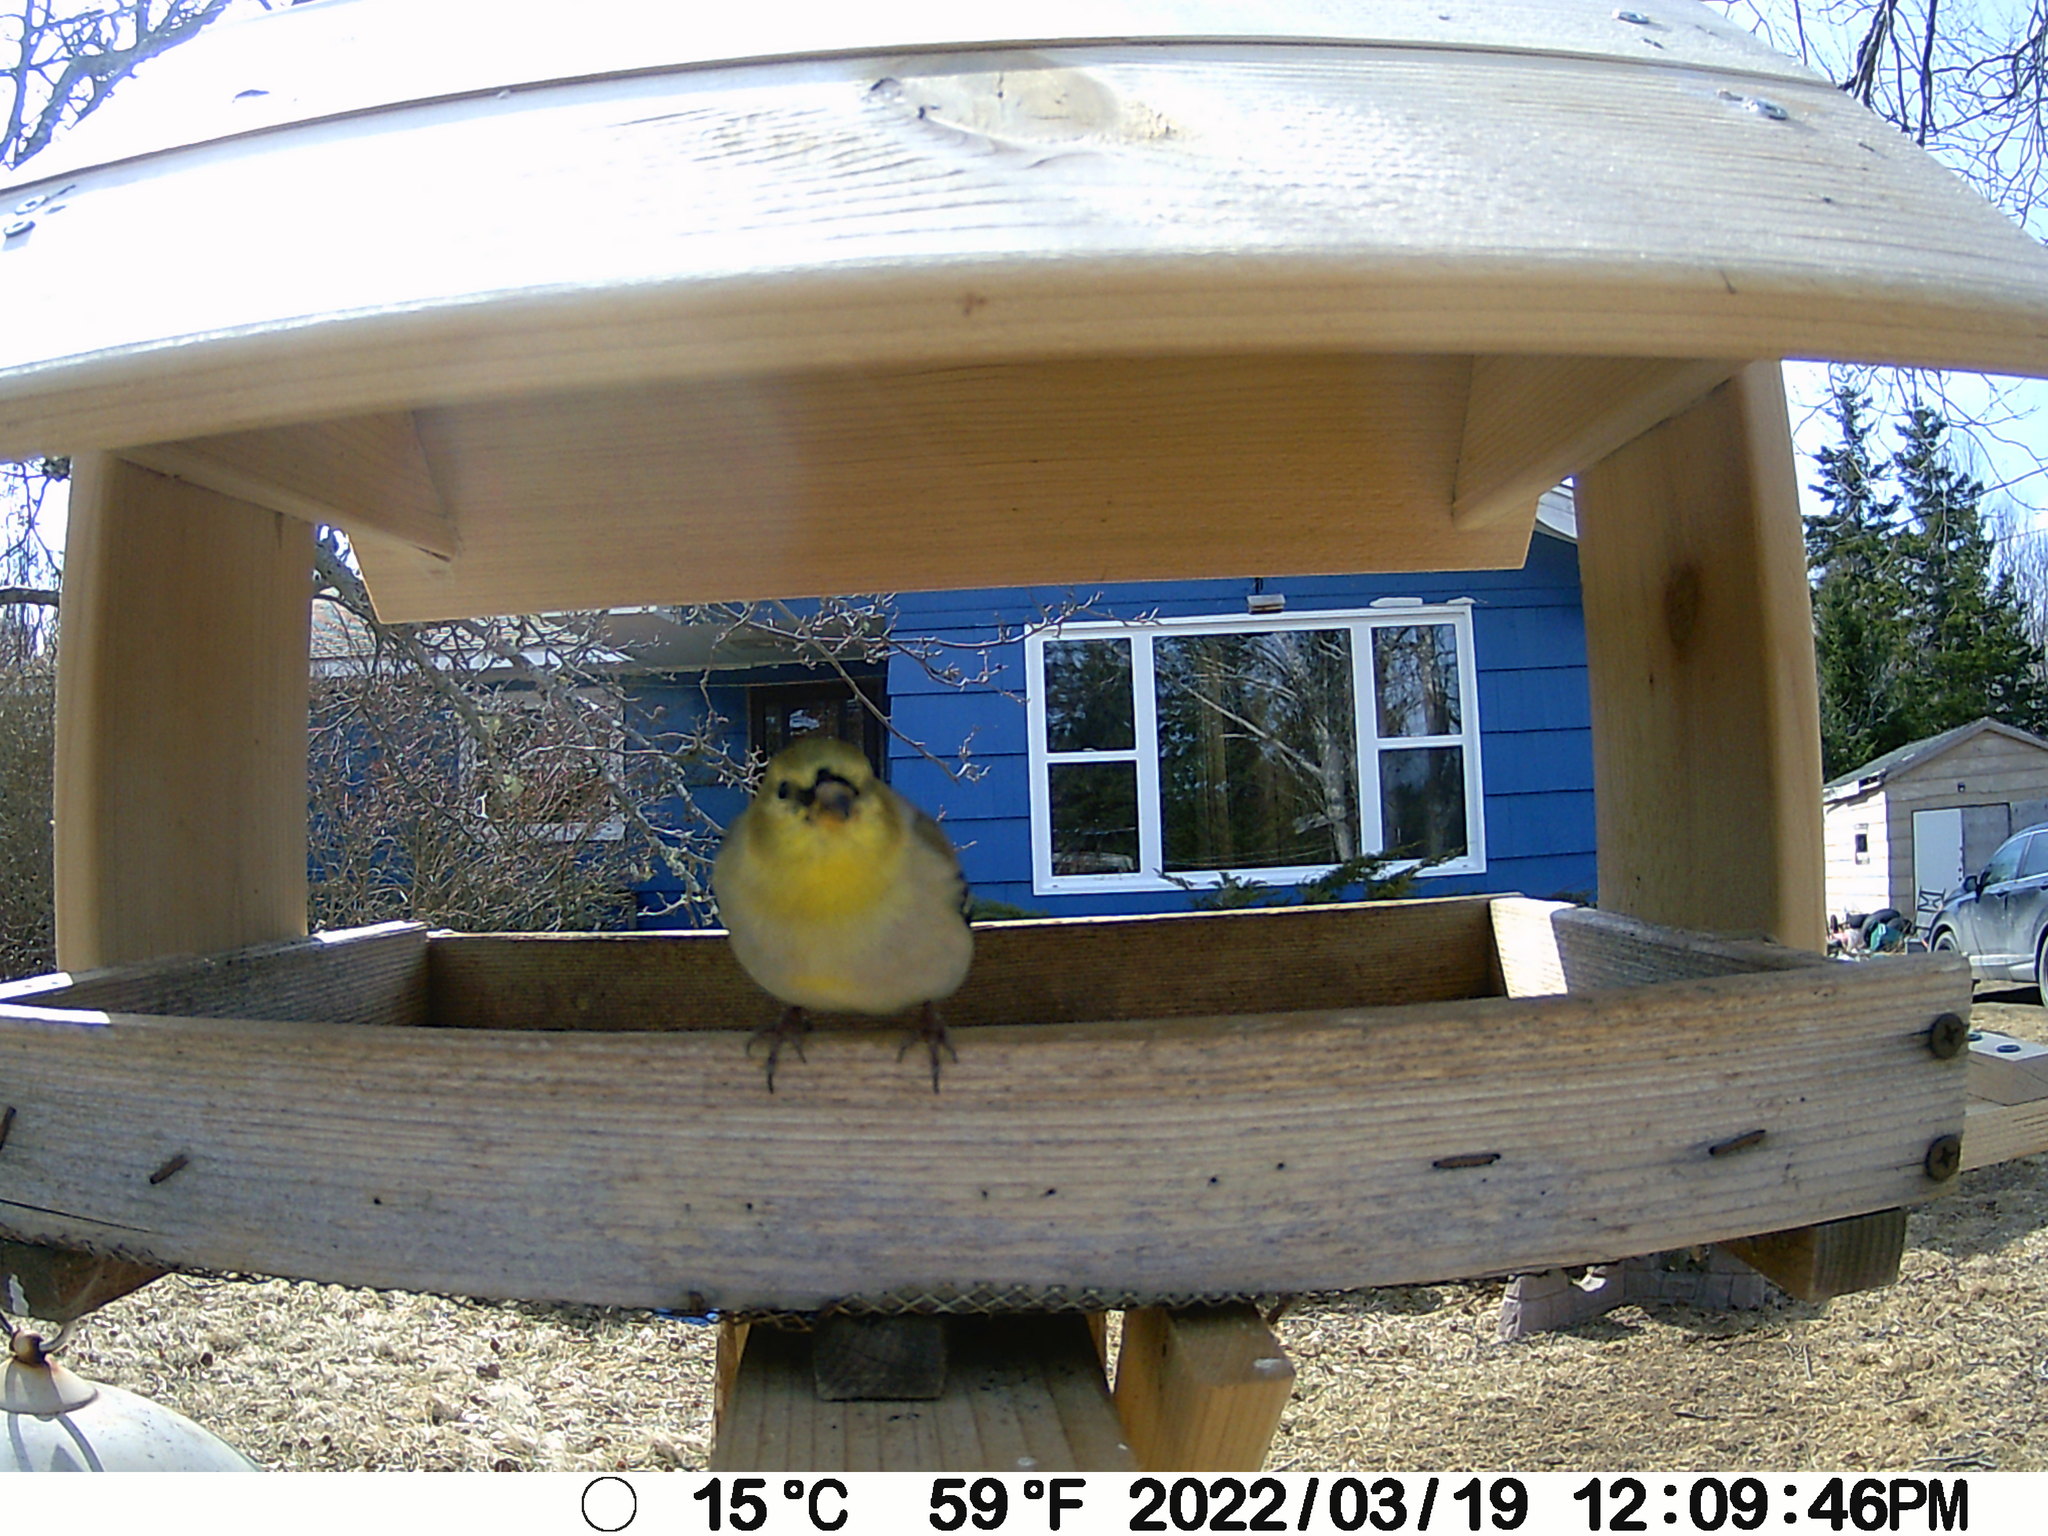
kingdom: Animalia
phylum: Chordata
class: Aves
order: Passeriformes
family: Fringillidae
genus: Spinus
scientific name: Spinus tristis
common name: American goldfinch
